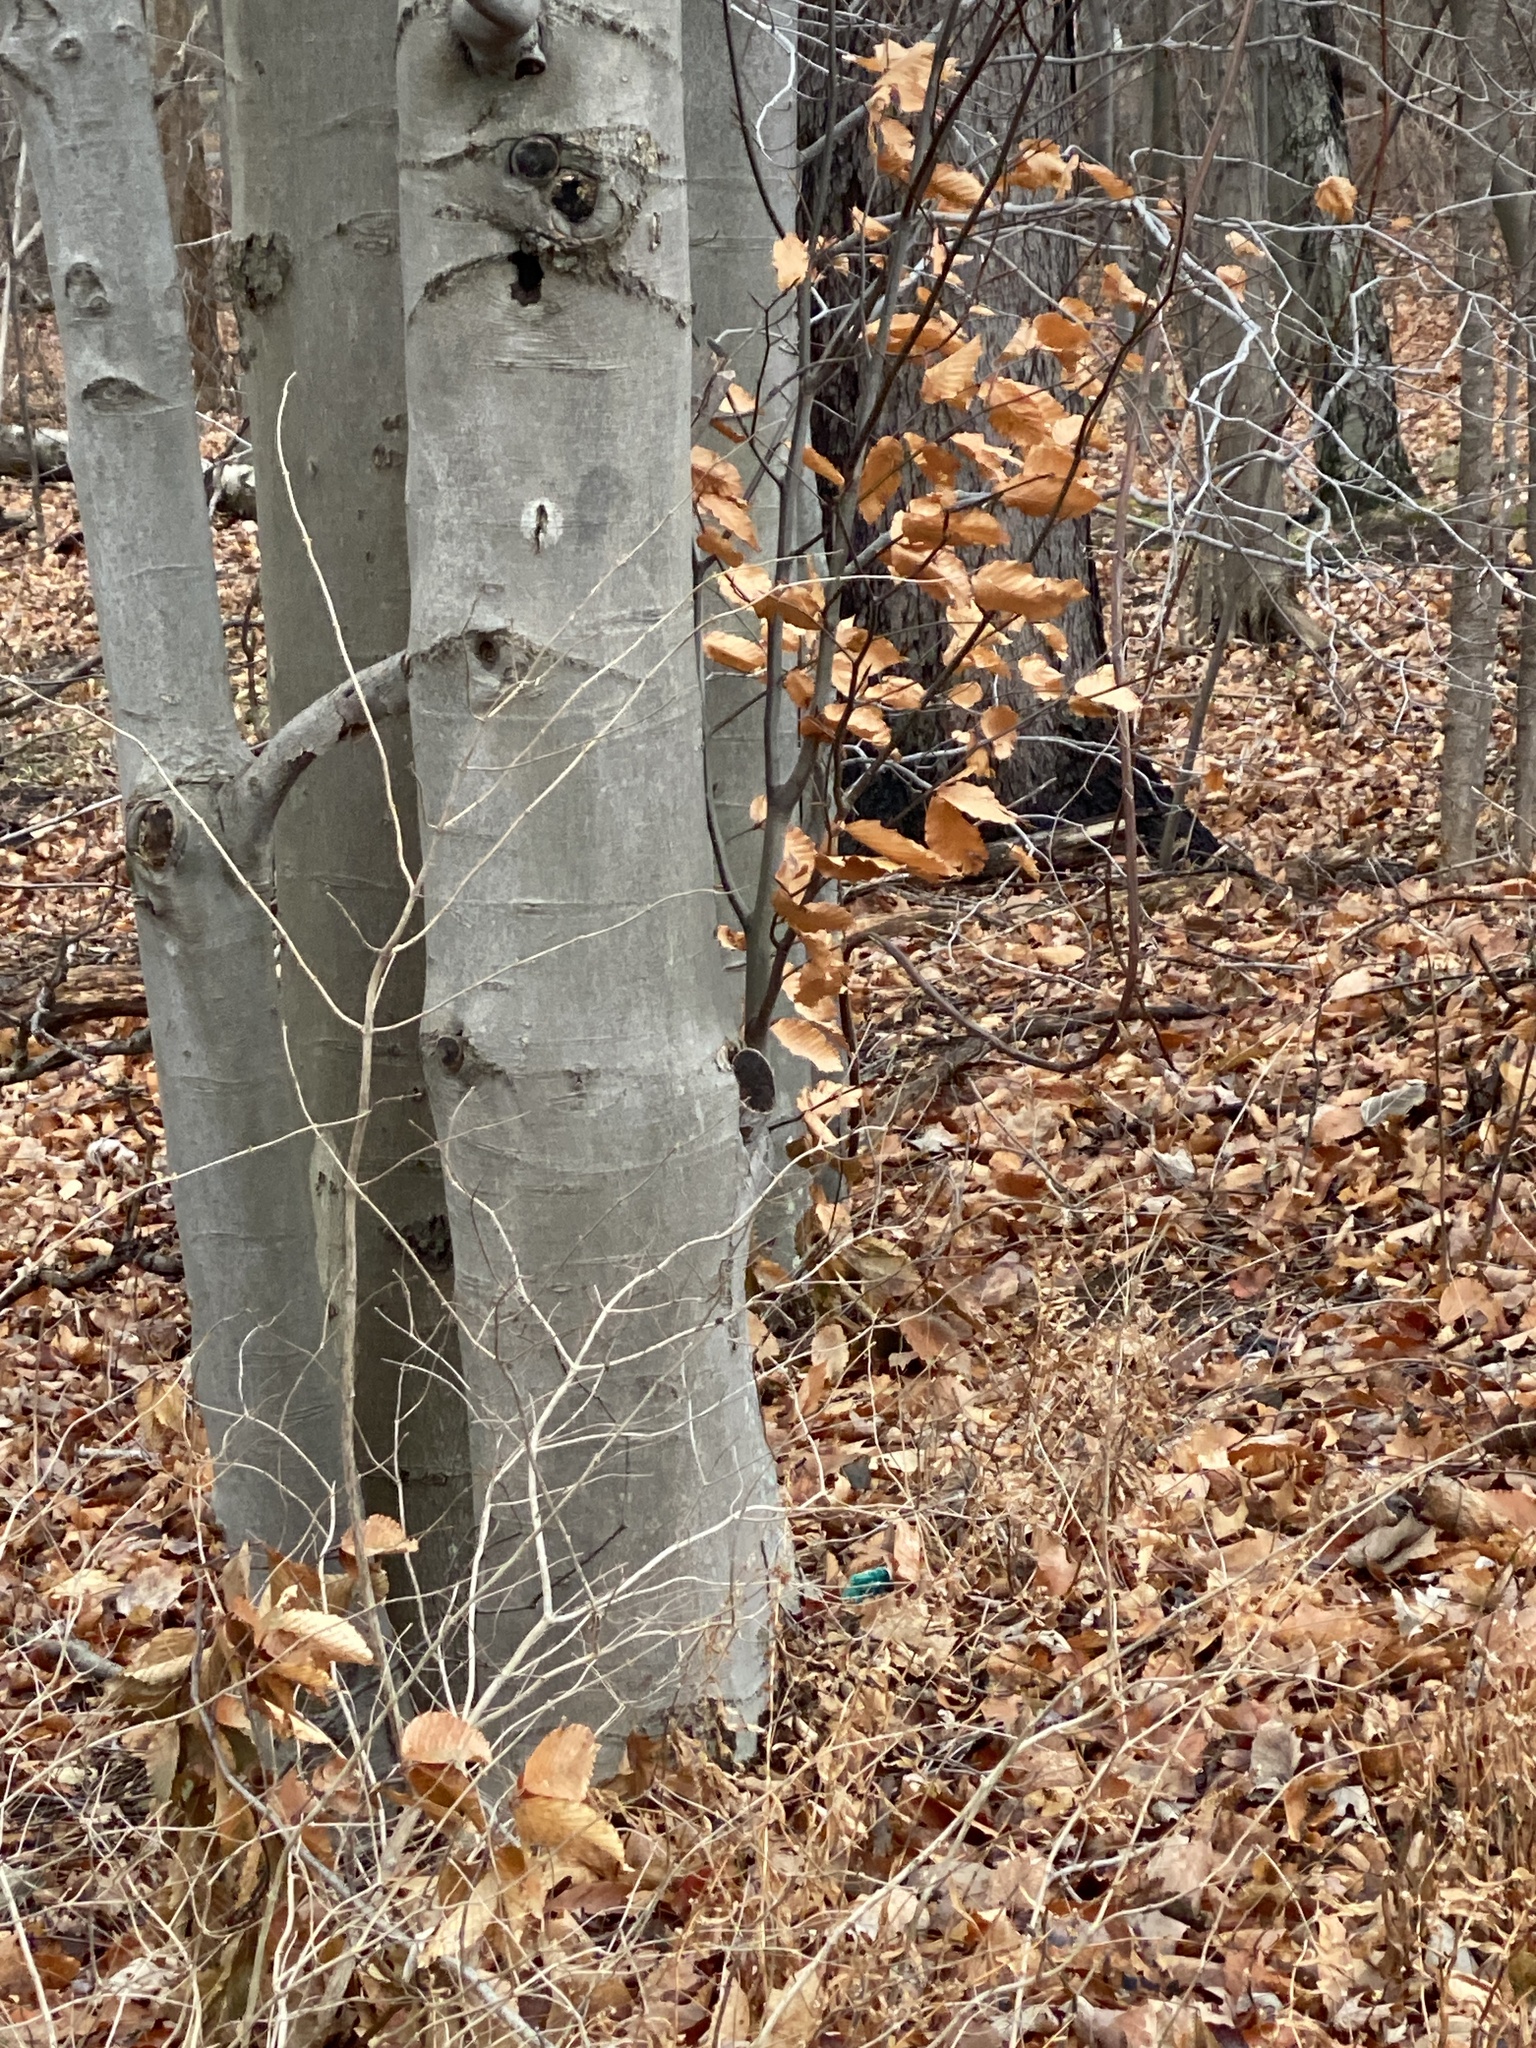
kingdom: Plantae
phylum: Tracheophyta
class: Magnoliopsida
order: Fagales
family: Fagaceae
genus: Fagus
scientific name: Fagus grandifolia
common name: American beech
